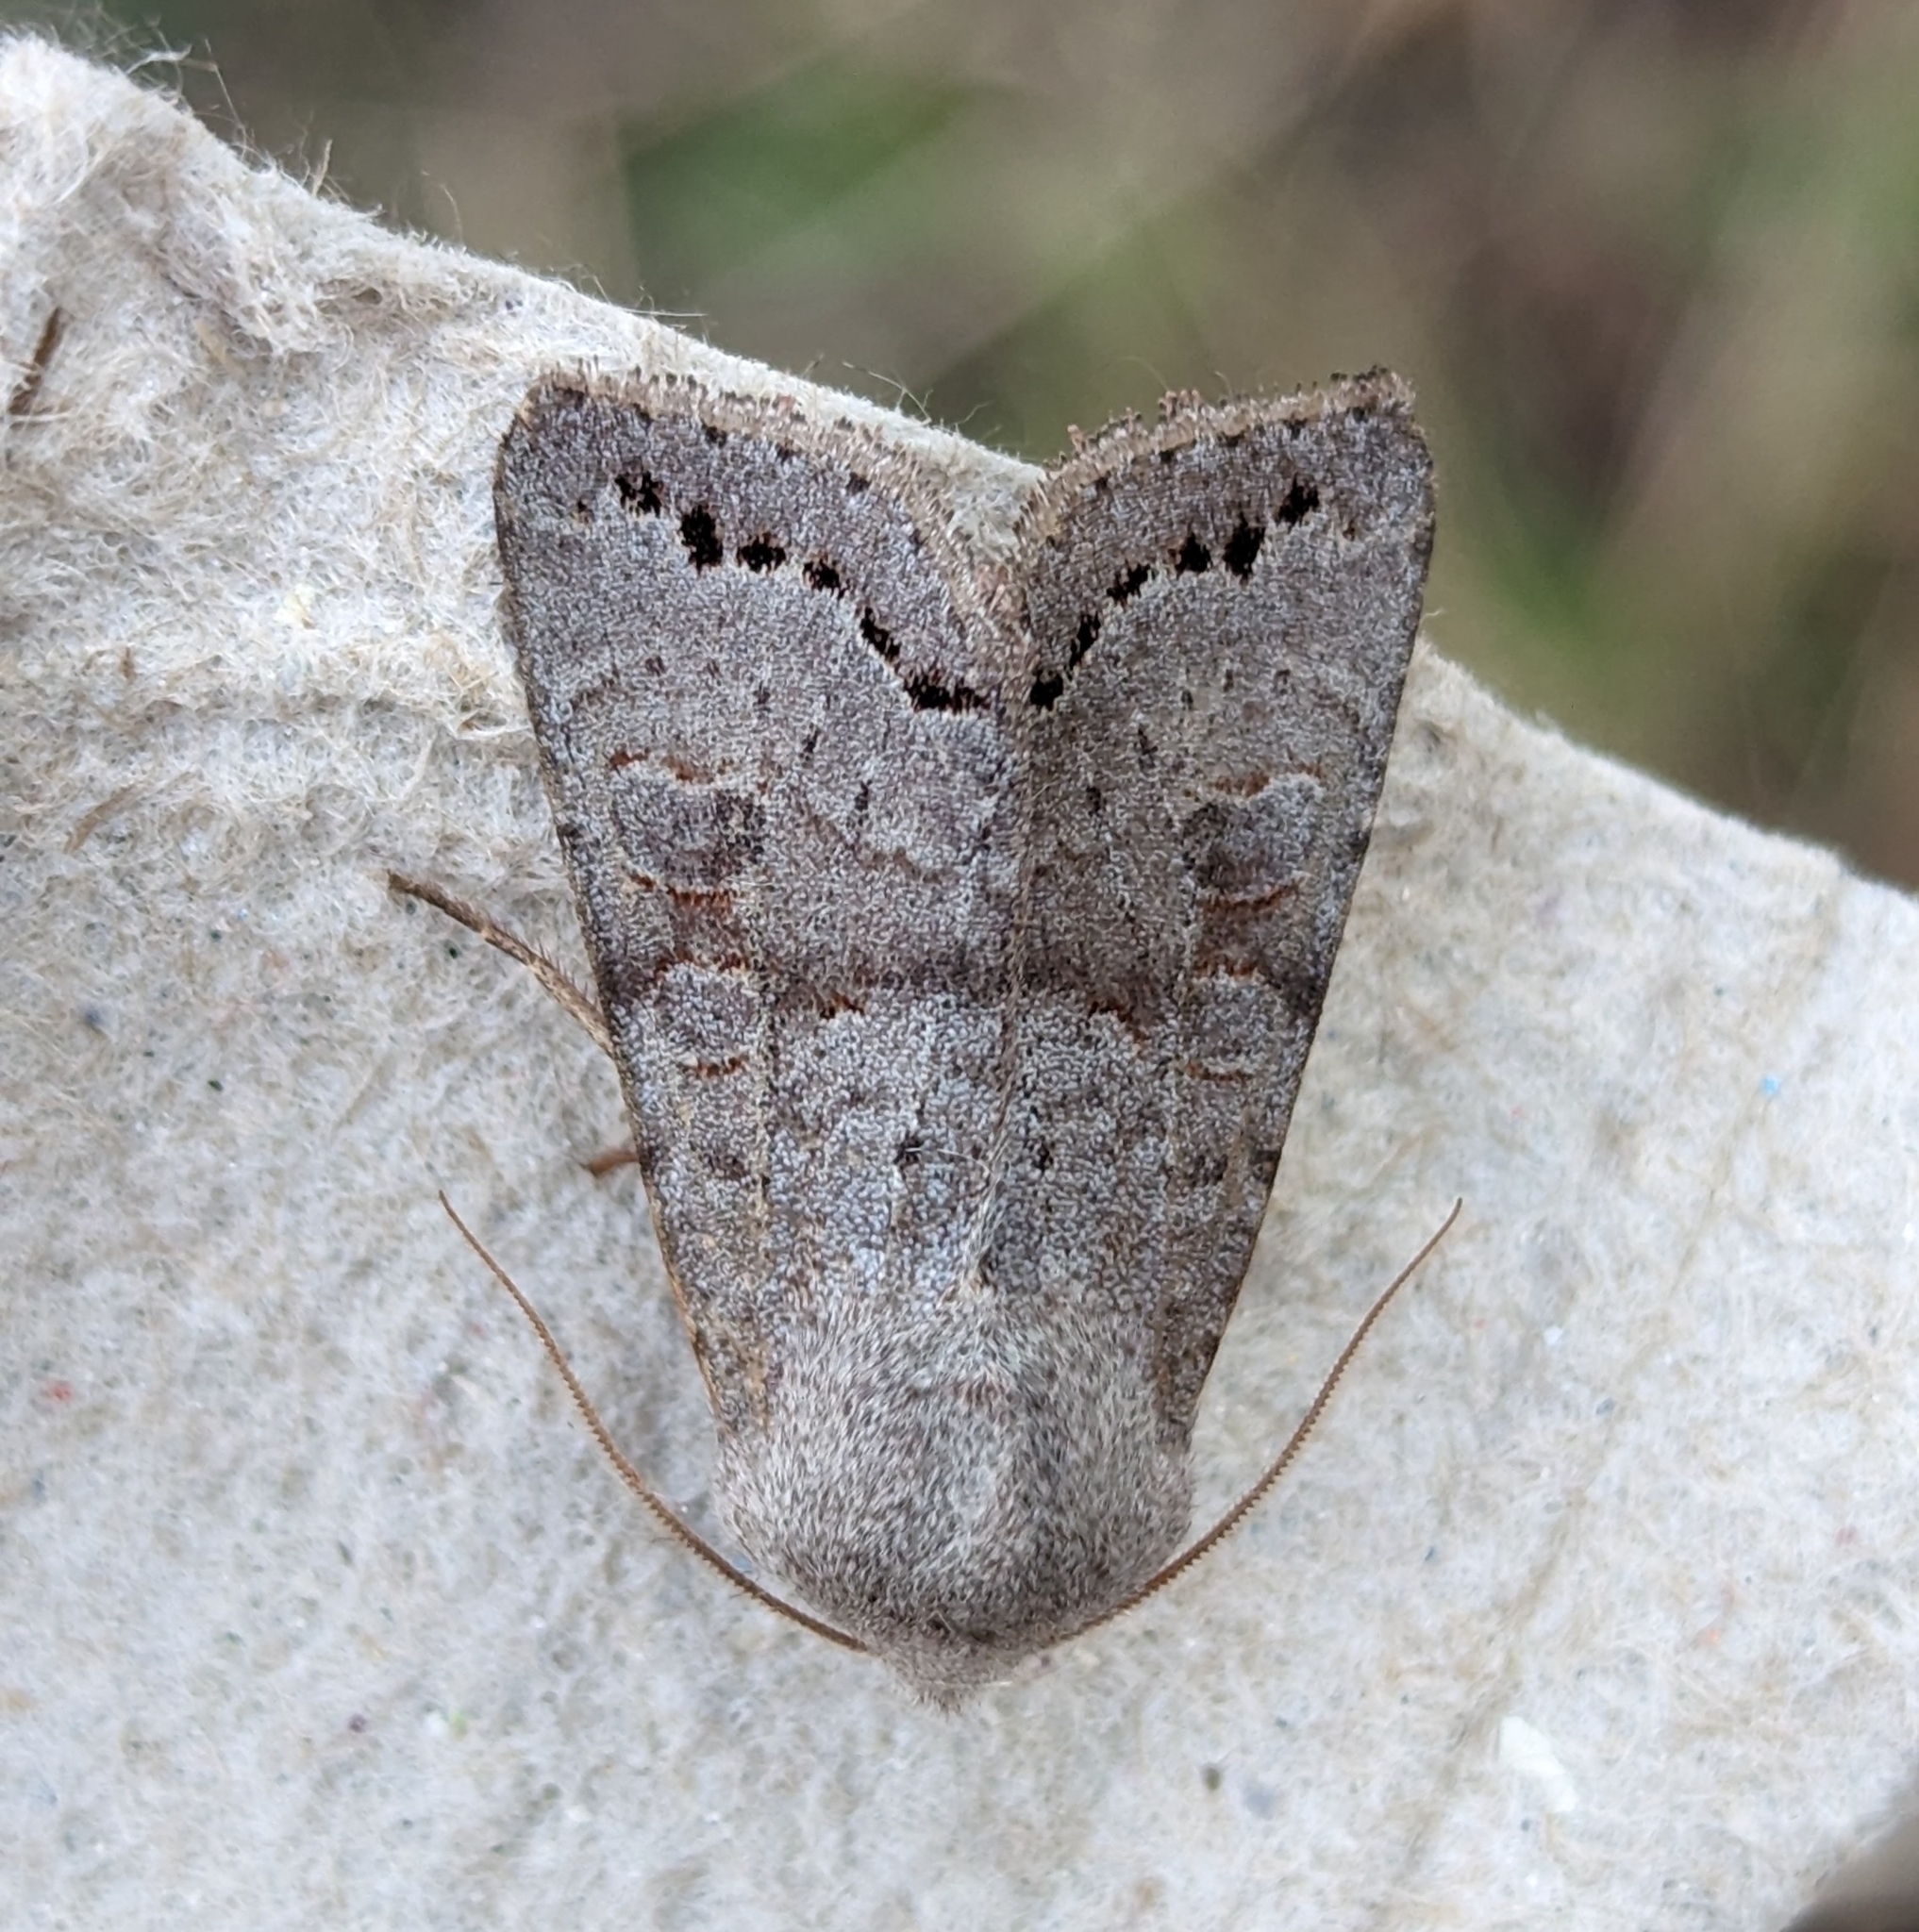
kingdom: Animalia
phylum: Arthropoda
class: Insecta
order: Lepidoptera
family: Noctuidae
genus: Orthosia
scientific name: Orthosia revicta
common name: Rusty whitesided caterpillar
